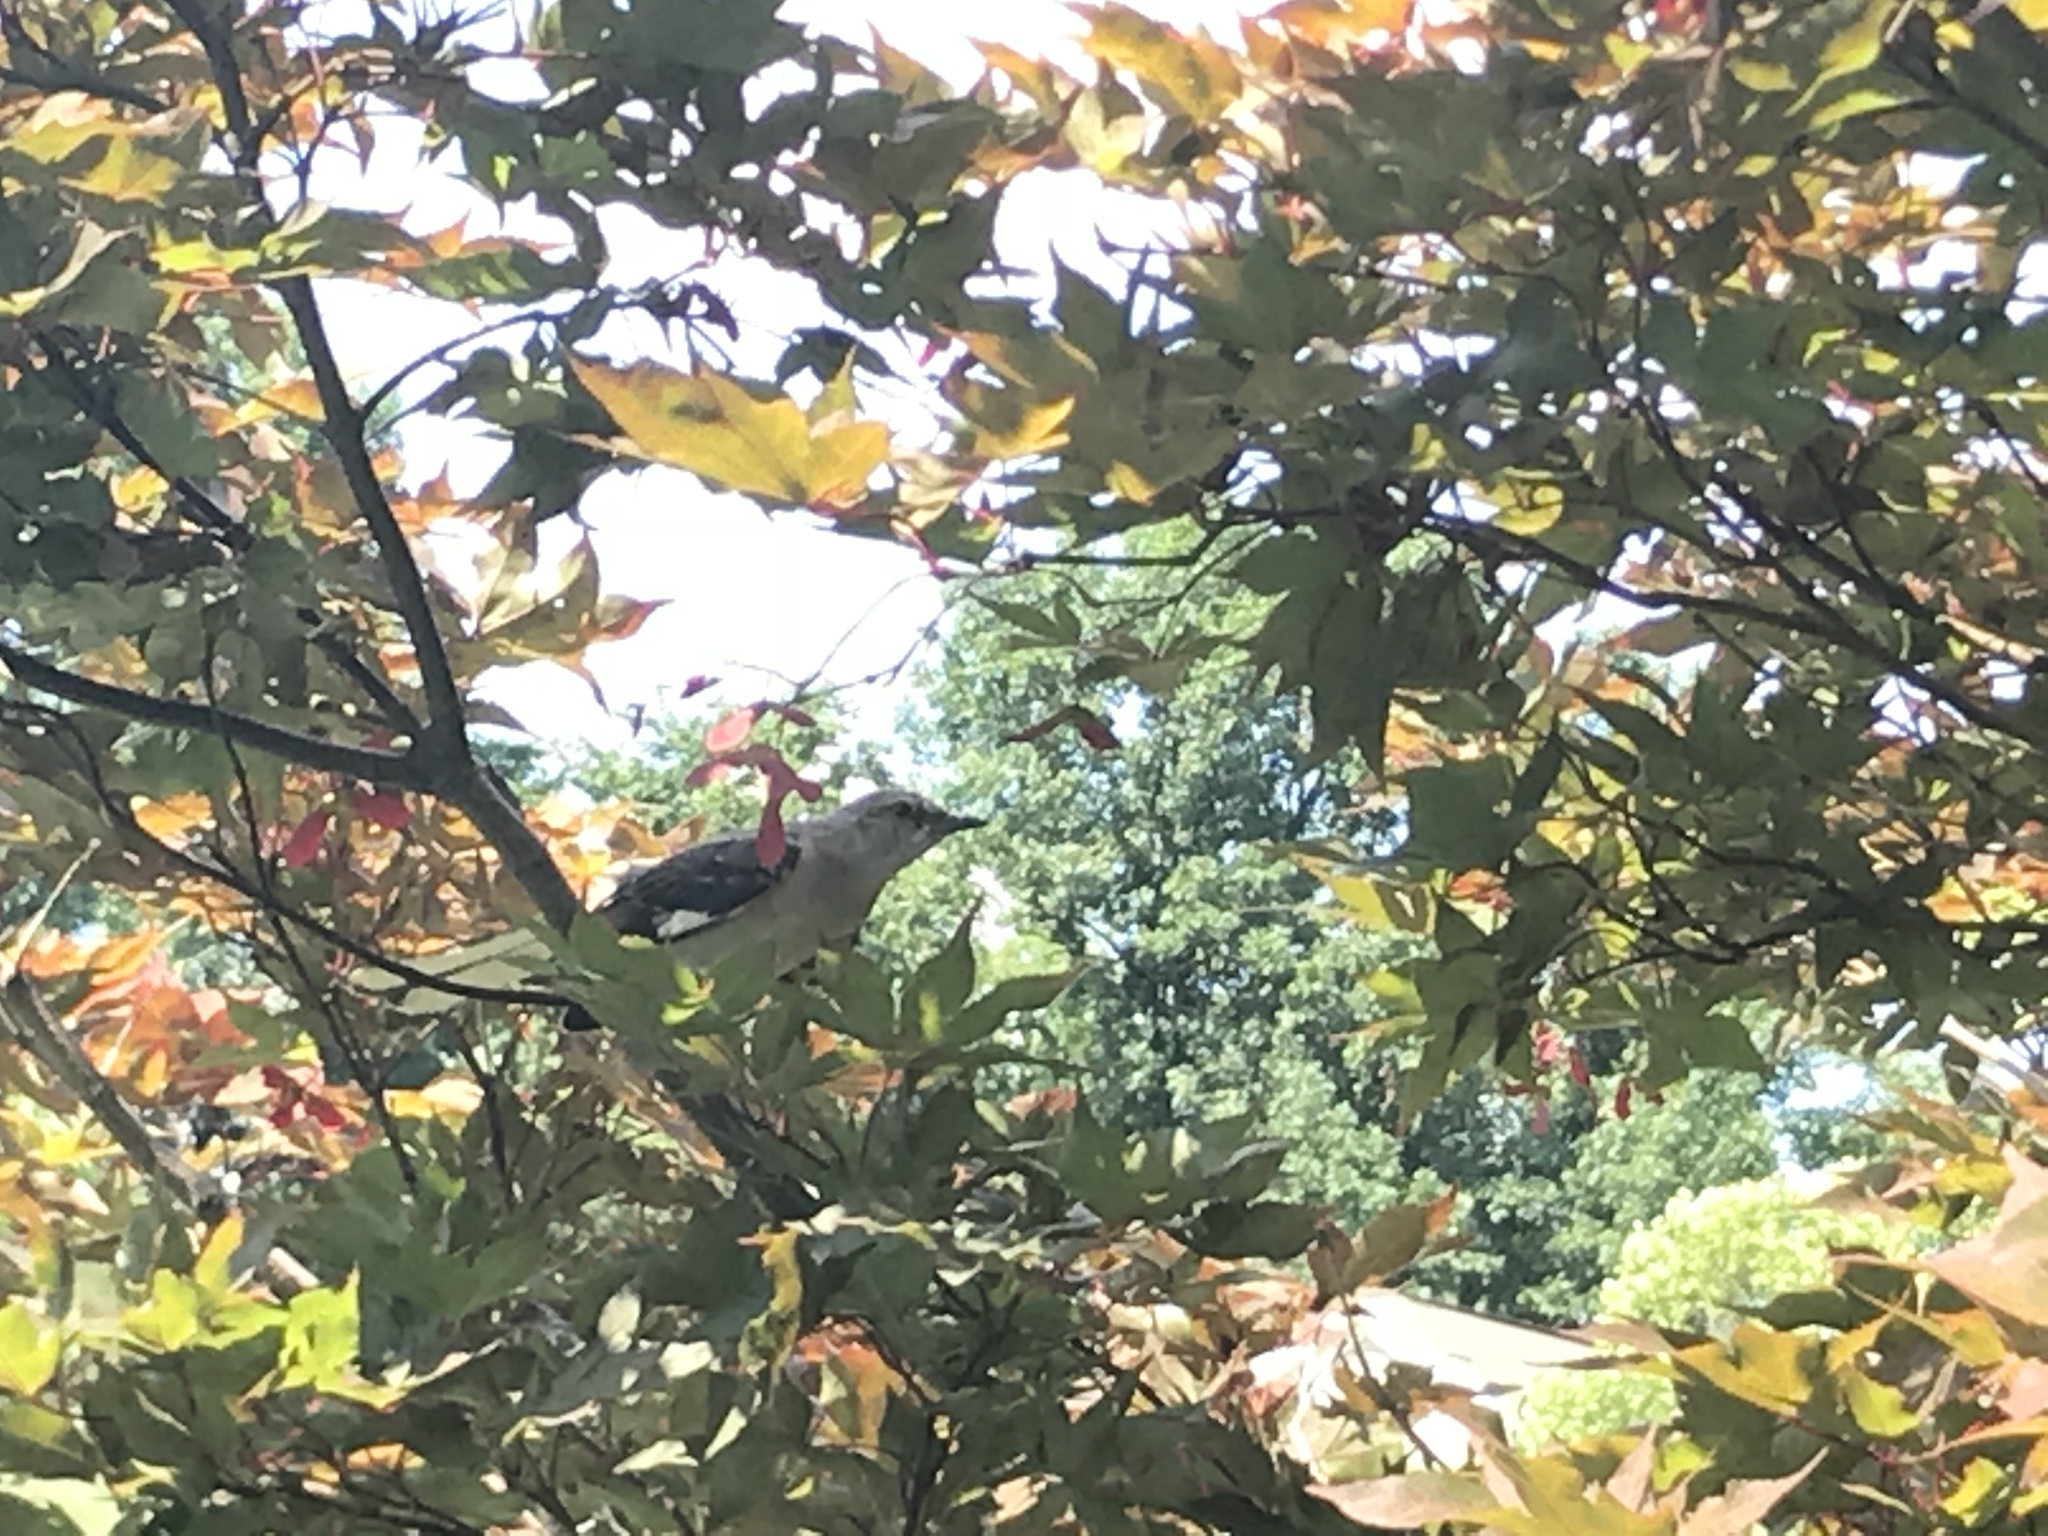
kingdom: Animalia
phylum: Chordata
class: Aves
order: Passeriformes
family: Mimidae
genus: Mimus
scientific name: Mimus polyglottos
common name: Northern mockingbird
